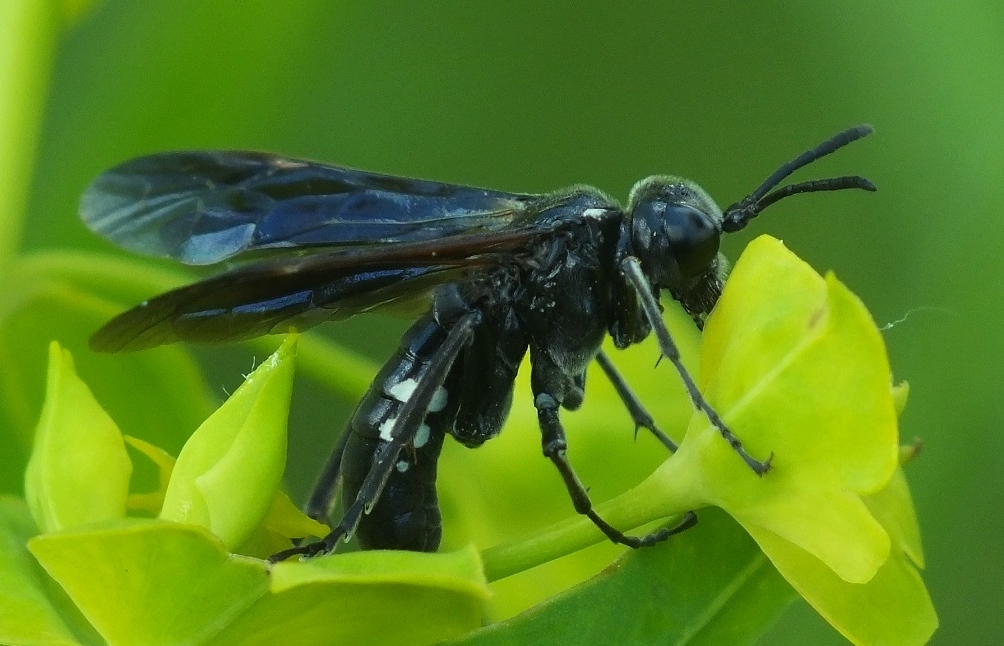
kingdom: Animalia
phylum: Arthropoda
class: Insecta
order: Hymenoptera
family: Tenthredinidae
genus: Tenthredo
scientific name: Tenthredo costata
